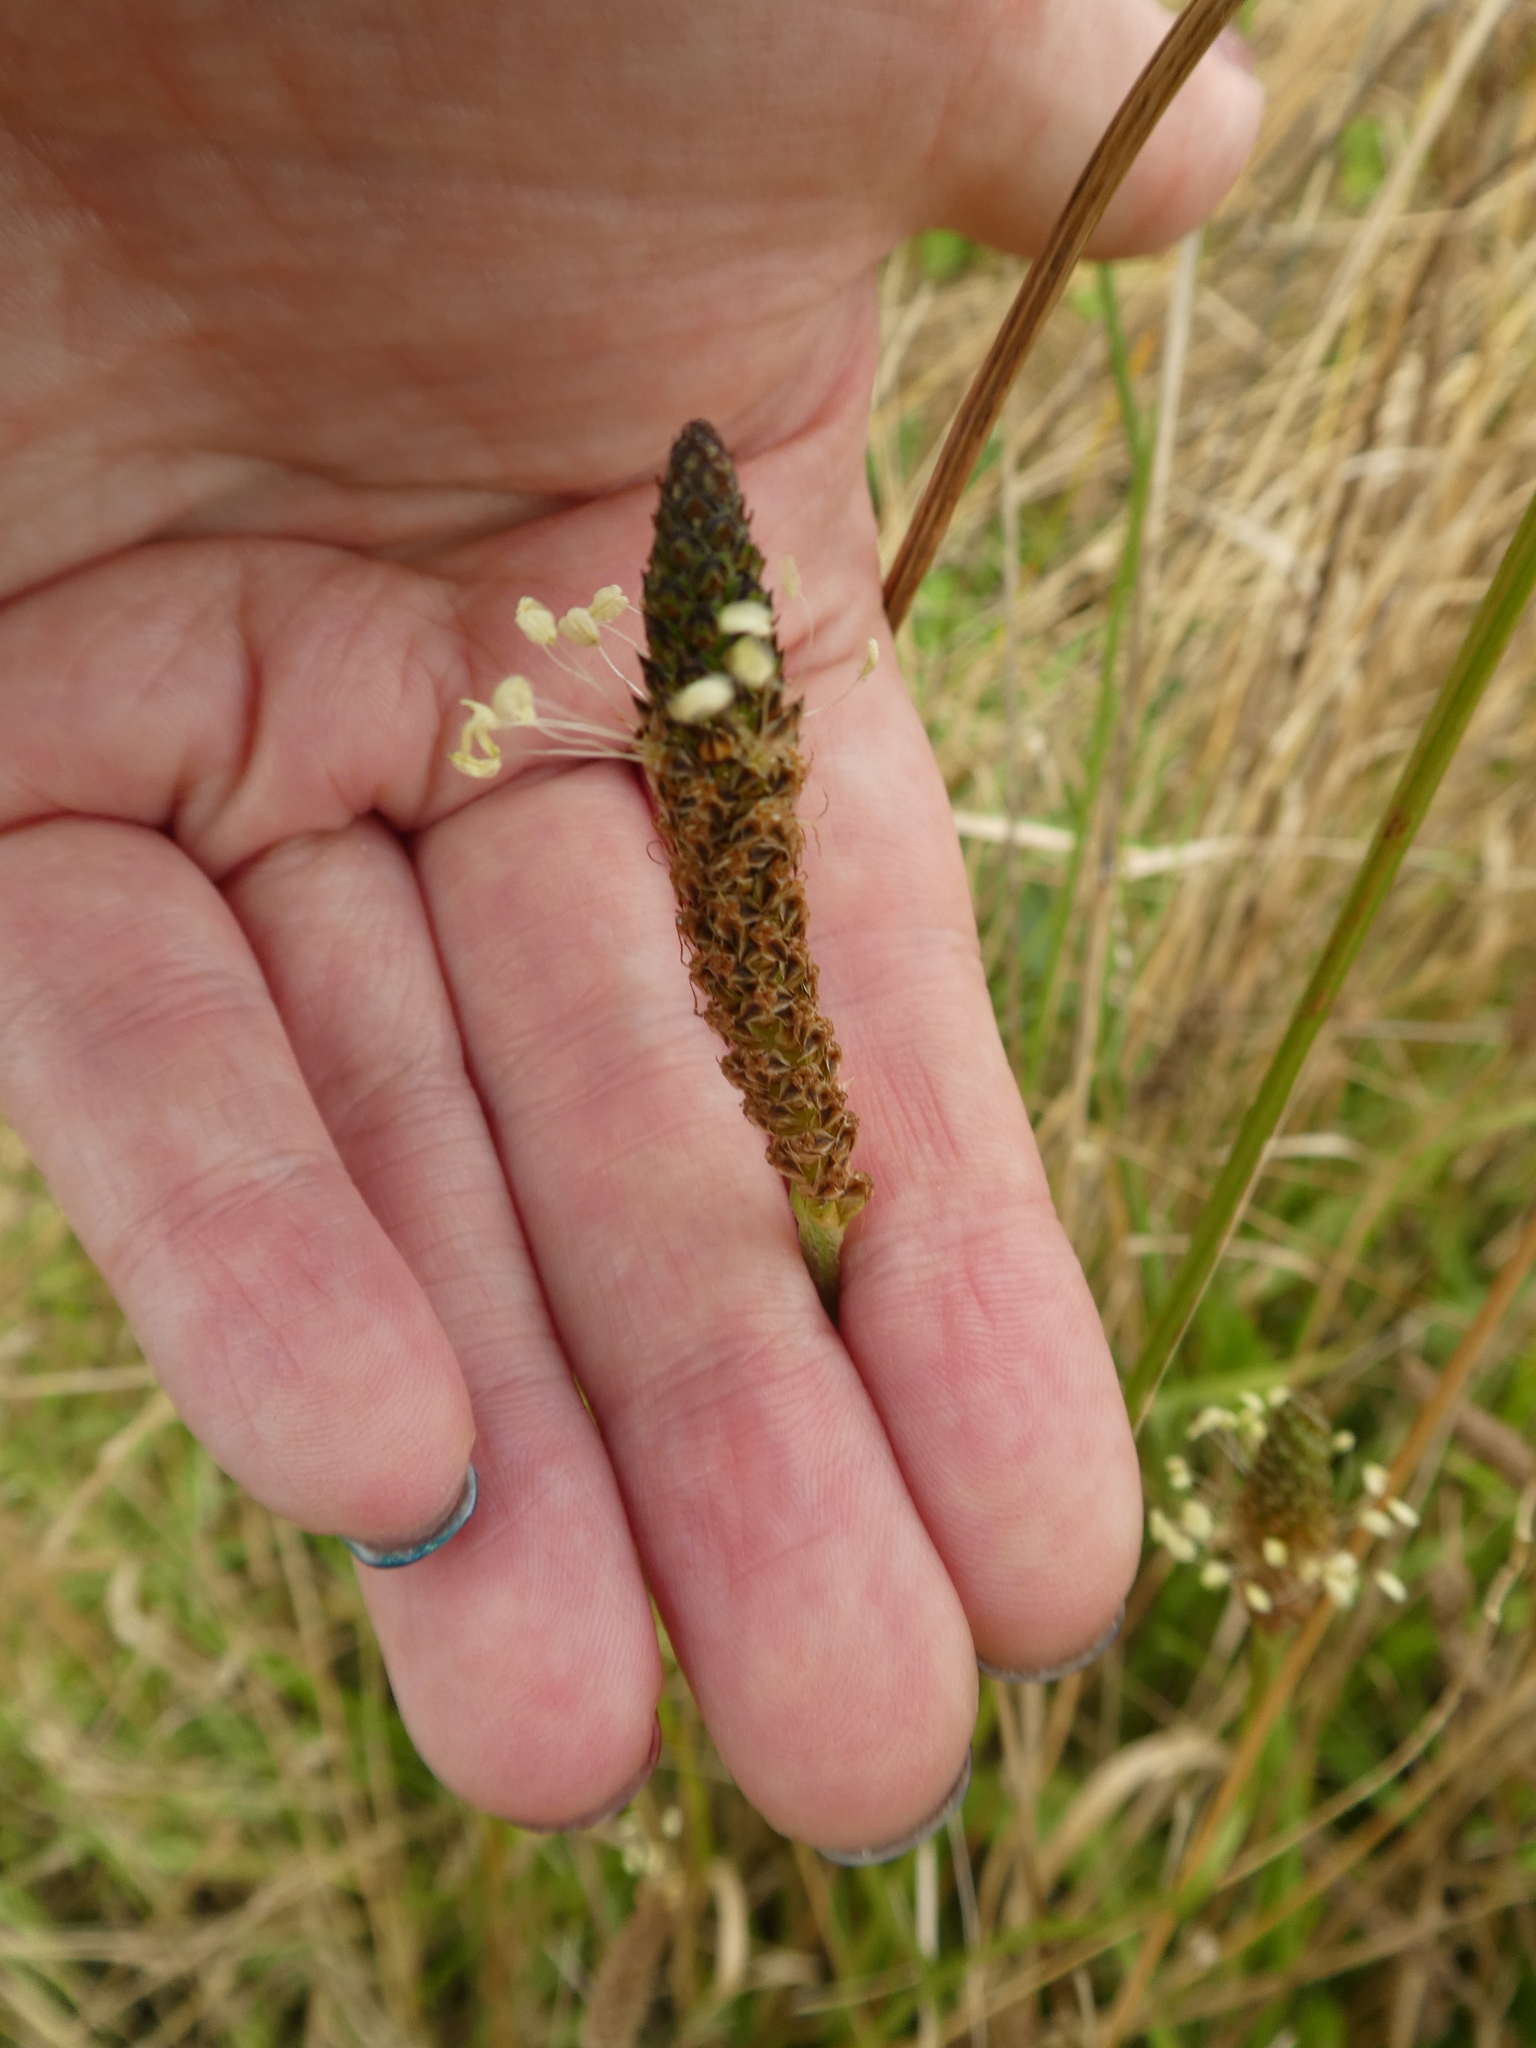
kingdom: Plantae
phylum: Tracheophyta
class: Magnoliopsida
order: Lamiales
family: Plantaginaceae
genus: Plantago
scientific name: Plantago lanceolata
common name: Ribwort plantain
